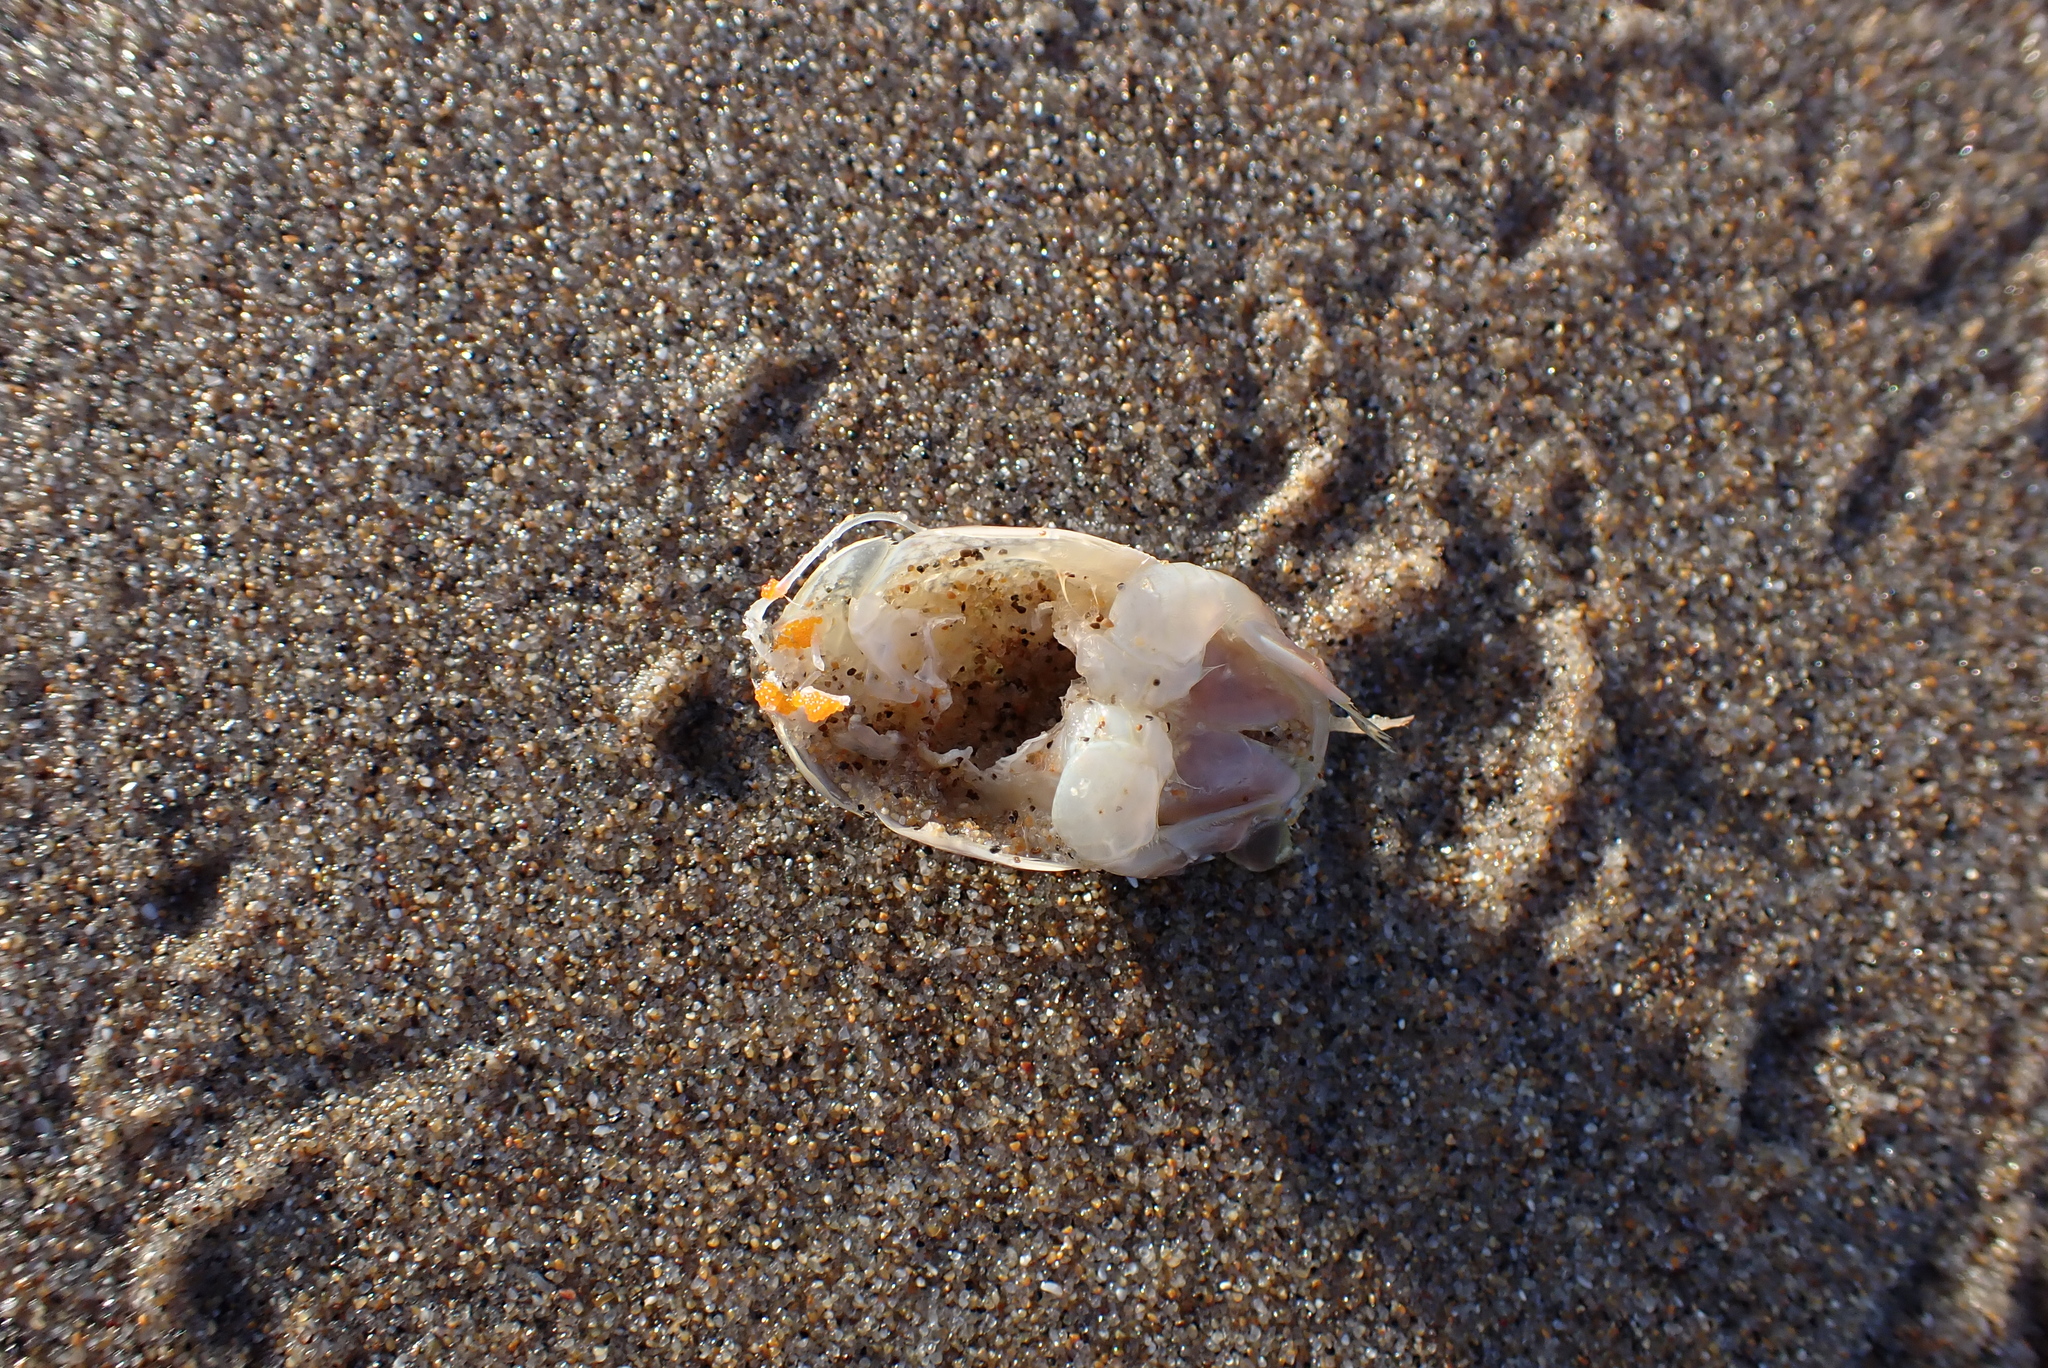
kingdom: Animalia
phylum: Arthropoda
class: Malacostraca
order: Decapoda
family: Hippidae
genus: Emerita
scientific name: Emerita analoga
